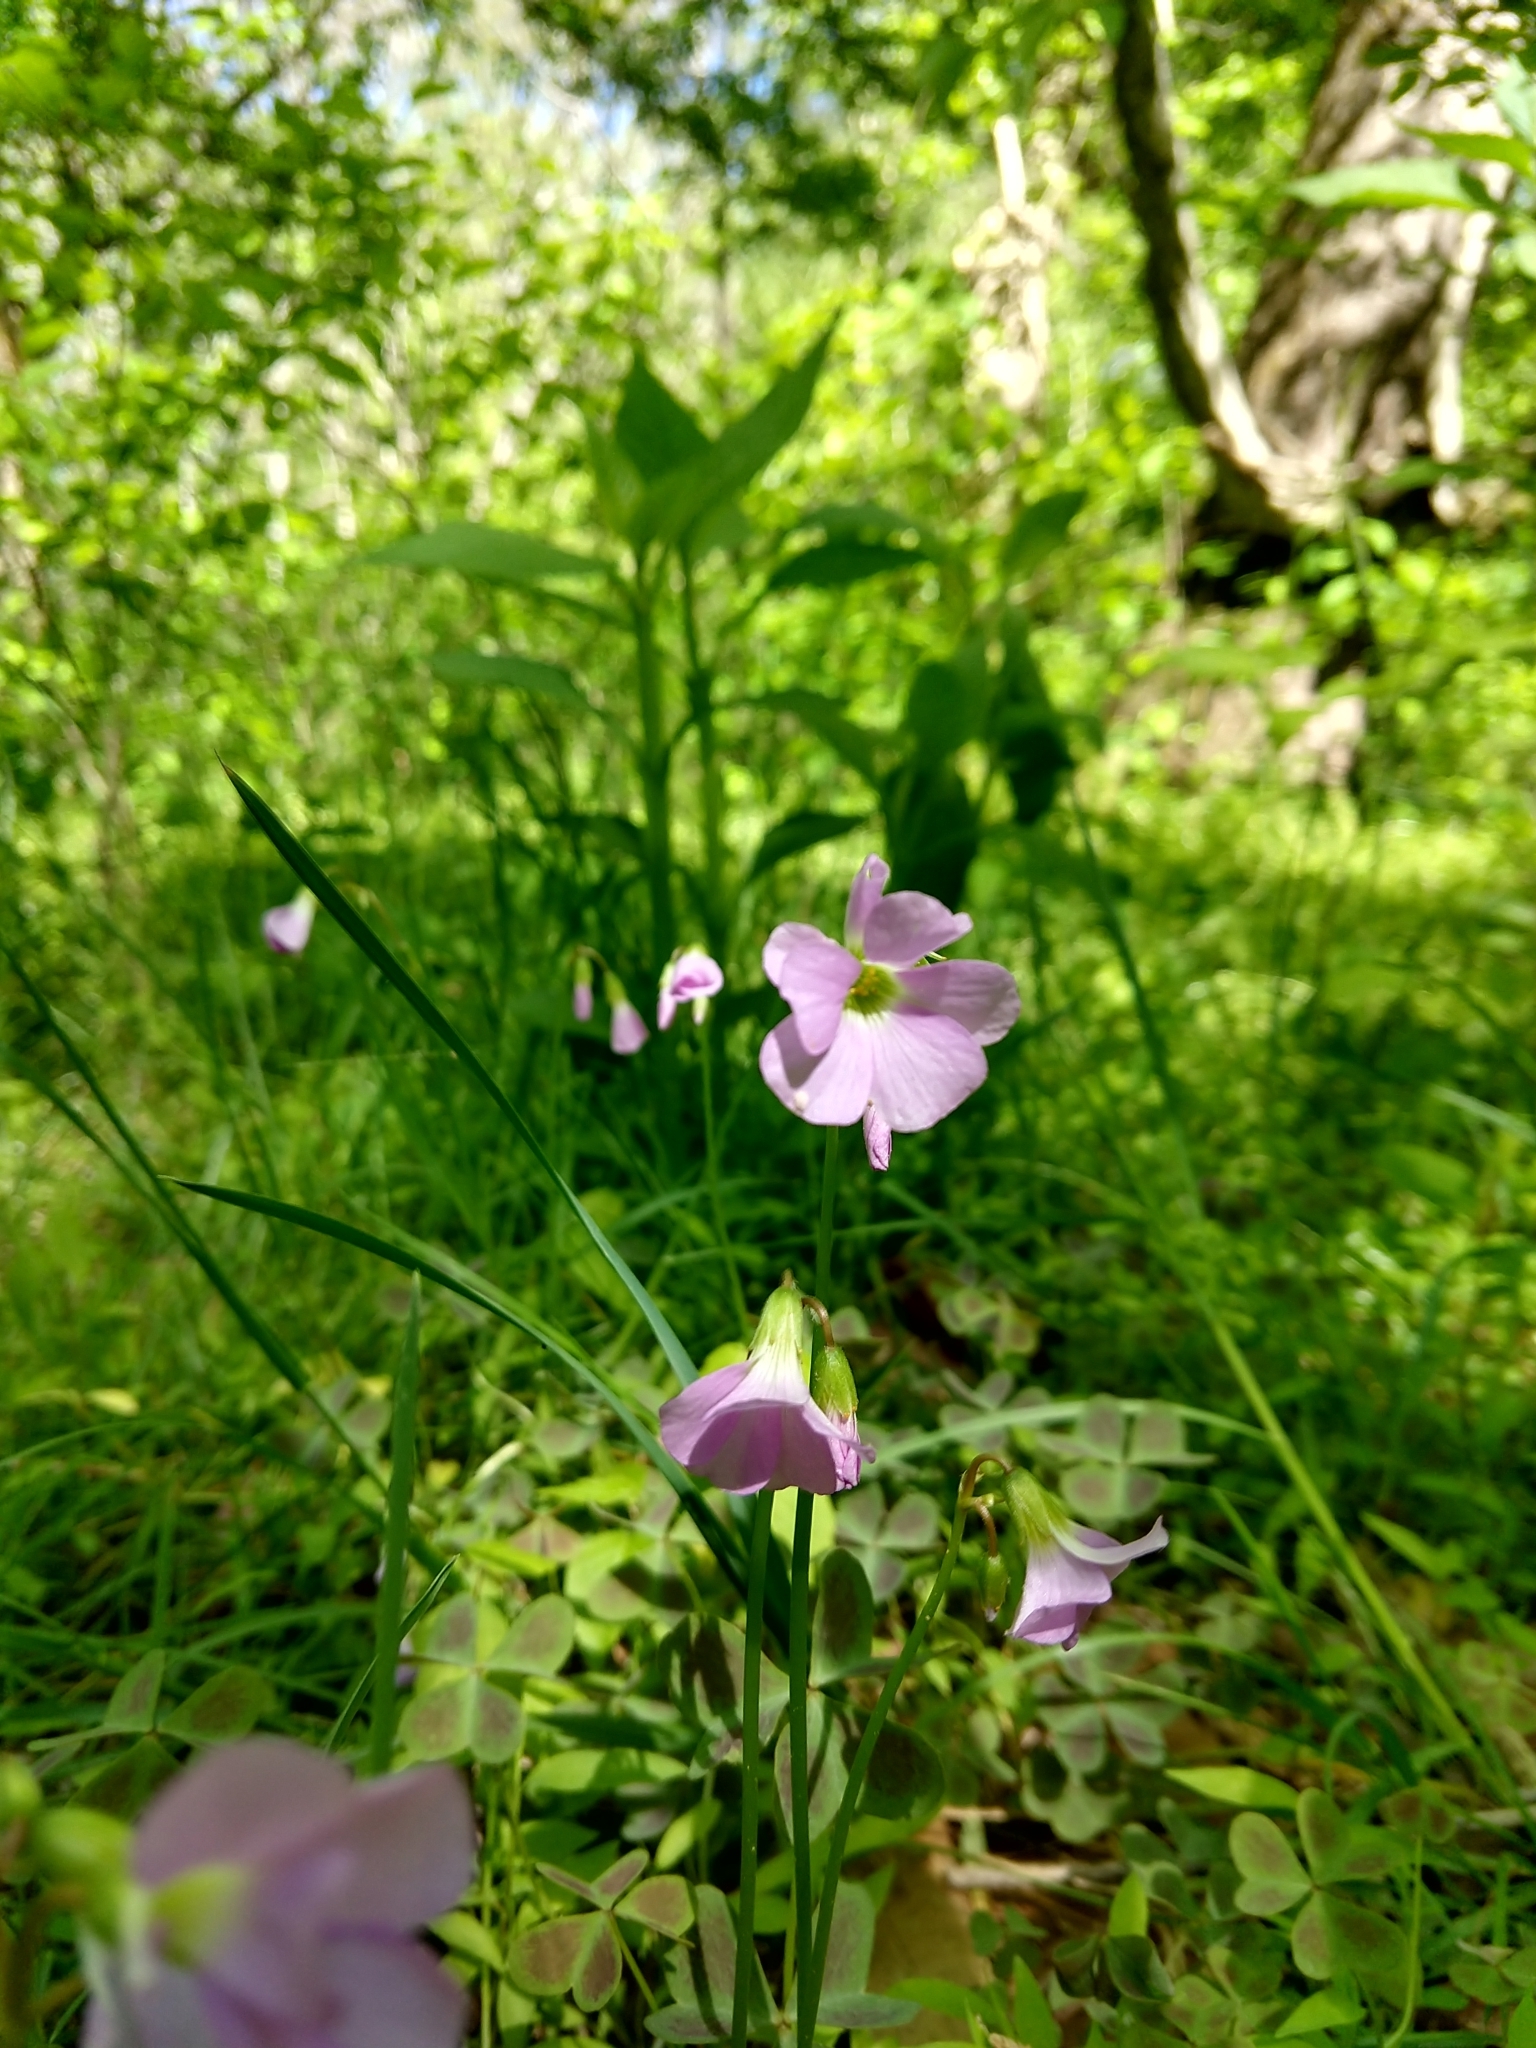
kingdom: Plantae
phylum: Tracheophyta
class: Magnoliopsida
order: Oxalidales
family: Oxalidaceae
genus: Oxalis
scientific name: Oxalis violacea
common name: Violet wood-sorrel
